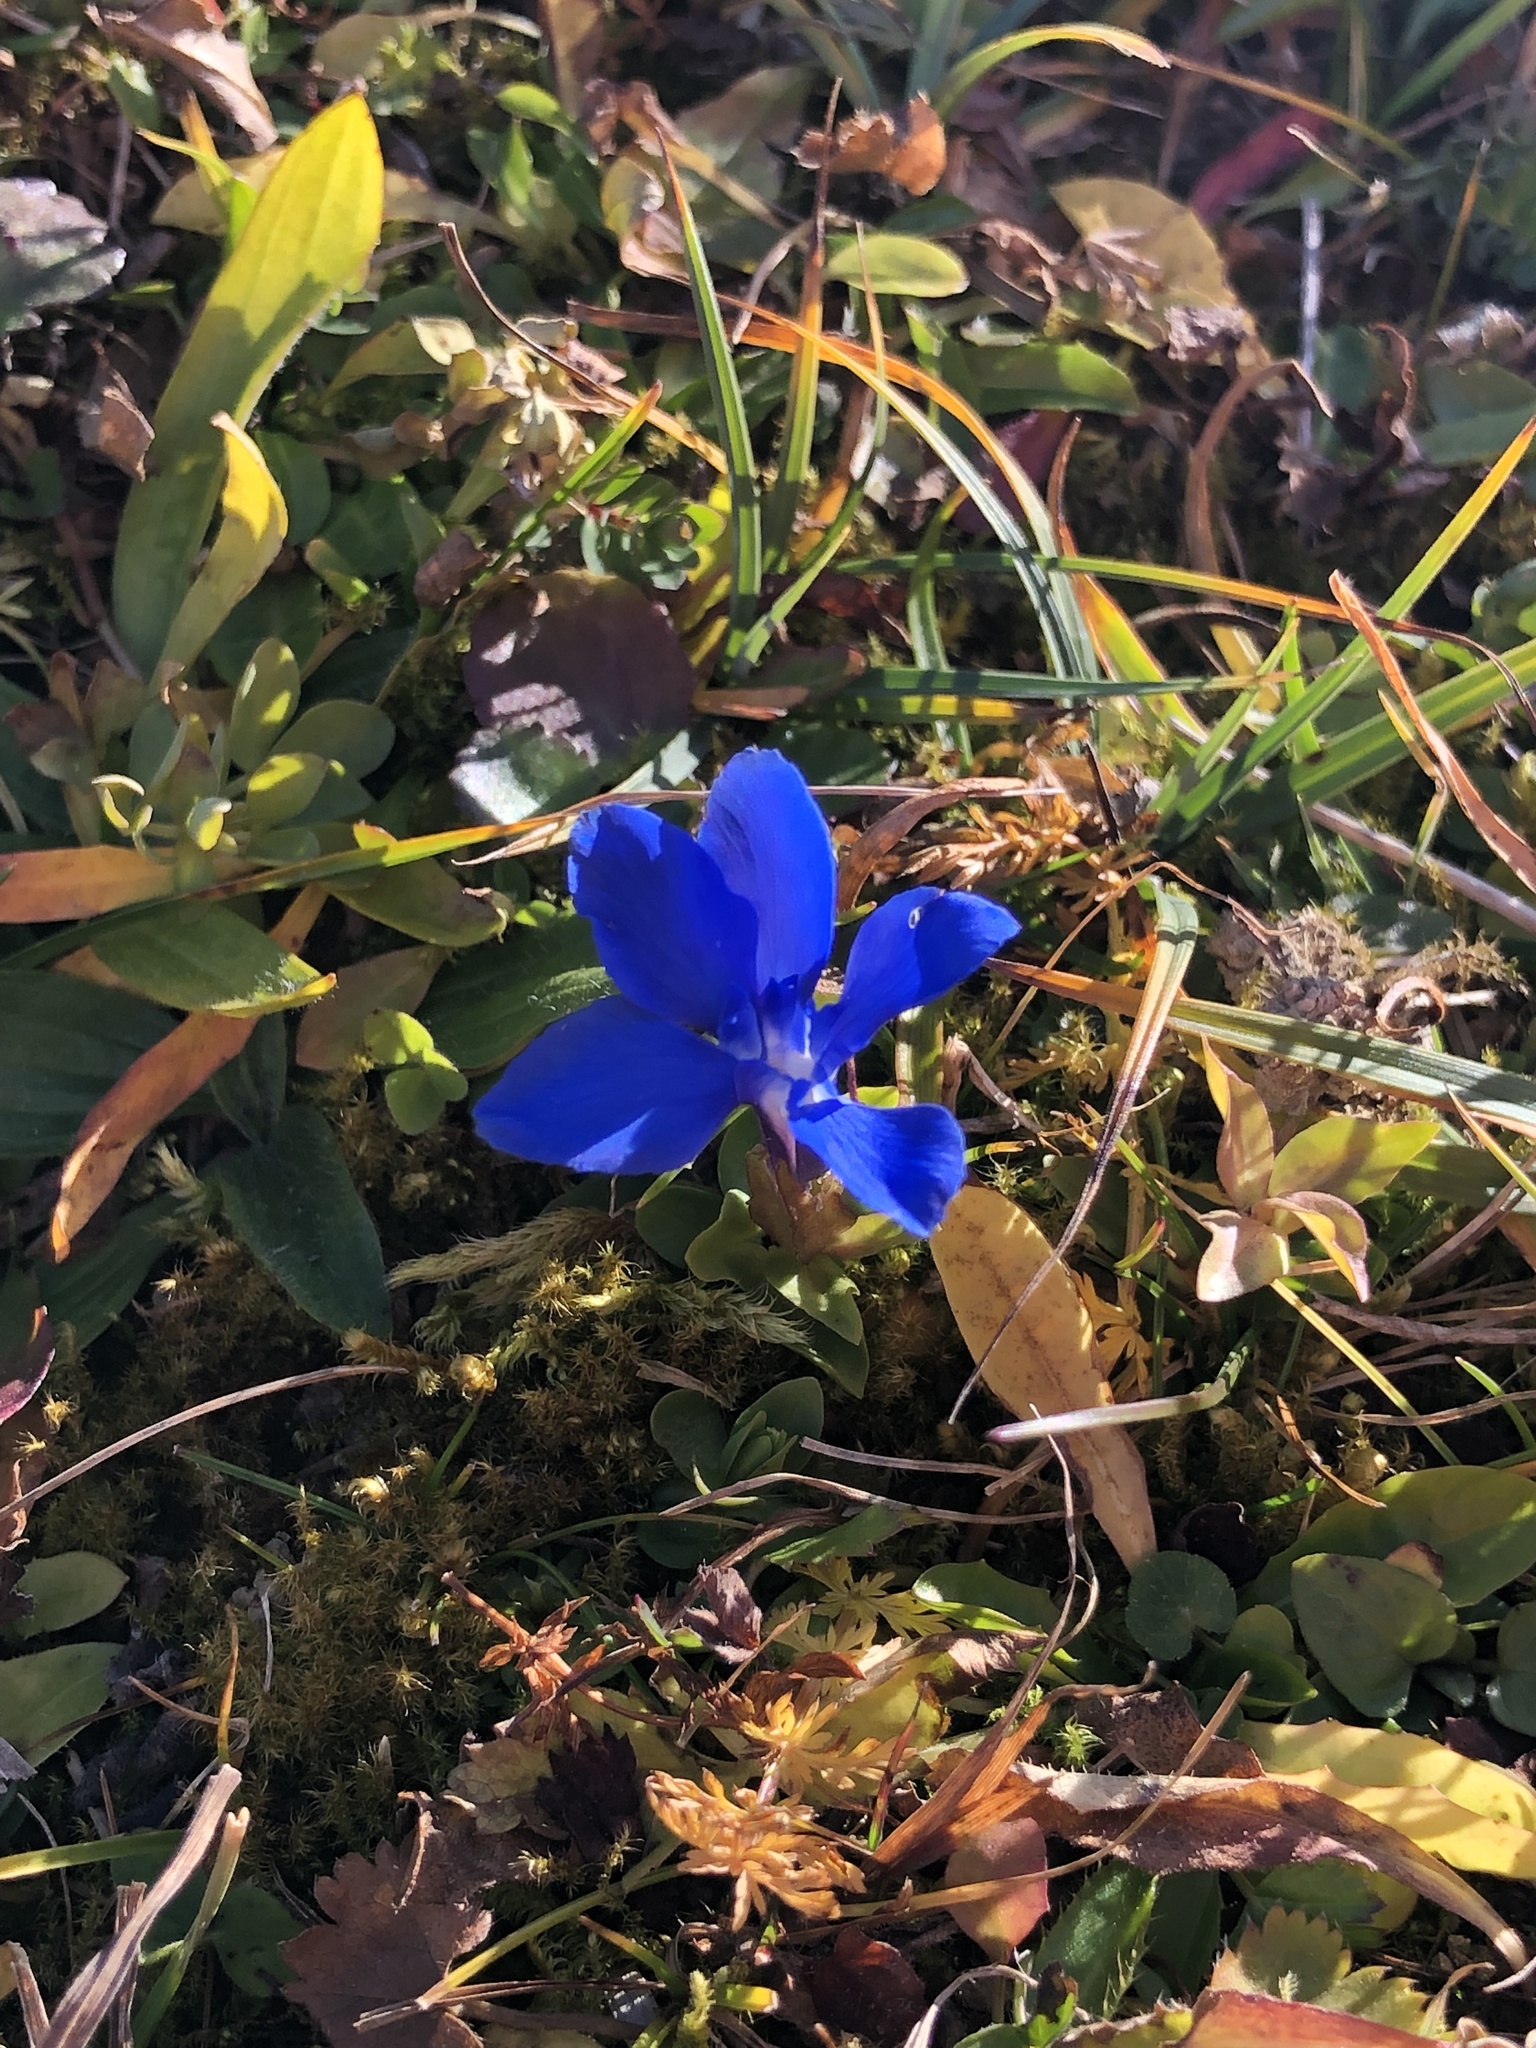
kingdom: Plantae
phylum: Tracheophyta
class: Magnoliopsida
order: Gentianales
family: Gentianaceae
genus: Gentiana
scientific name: Gentiana verna
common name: Spring gentian
